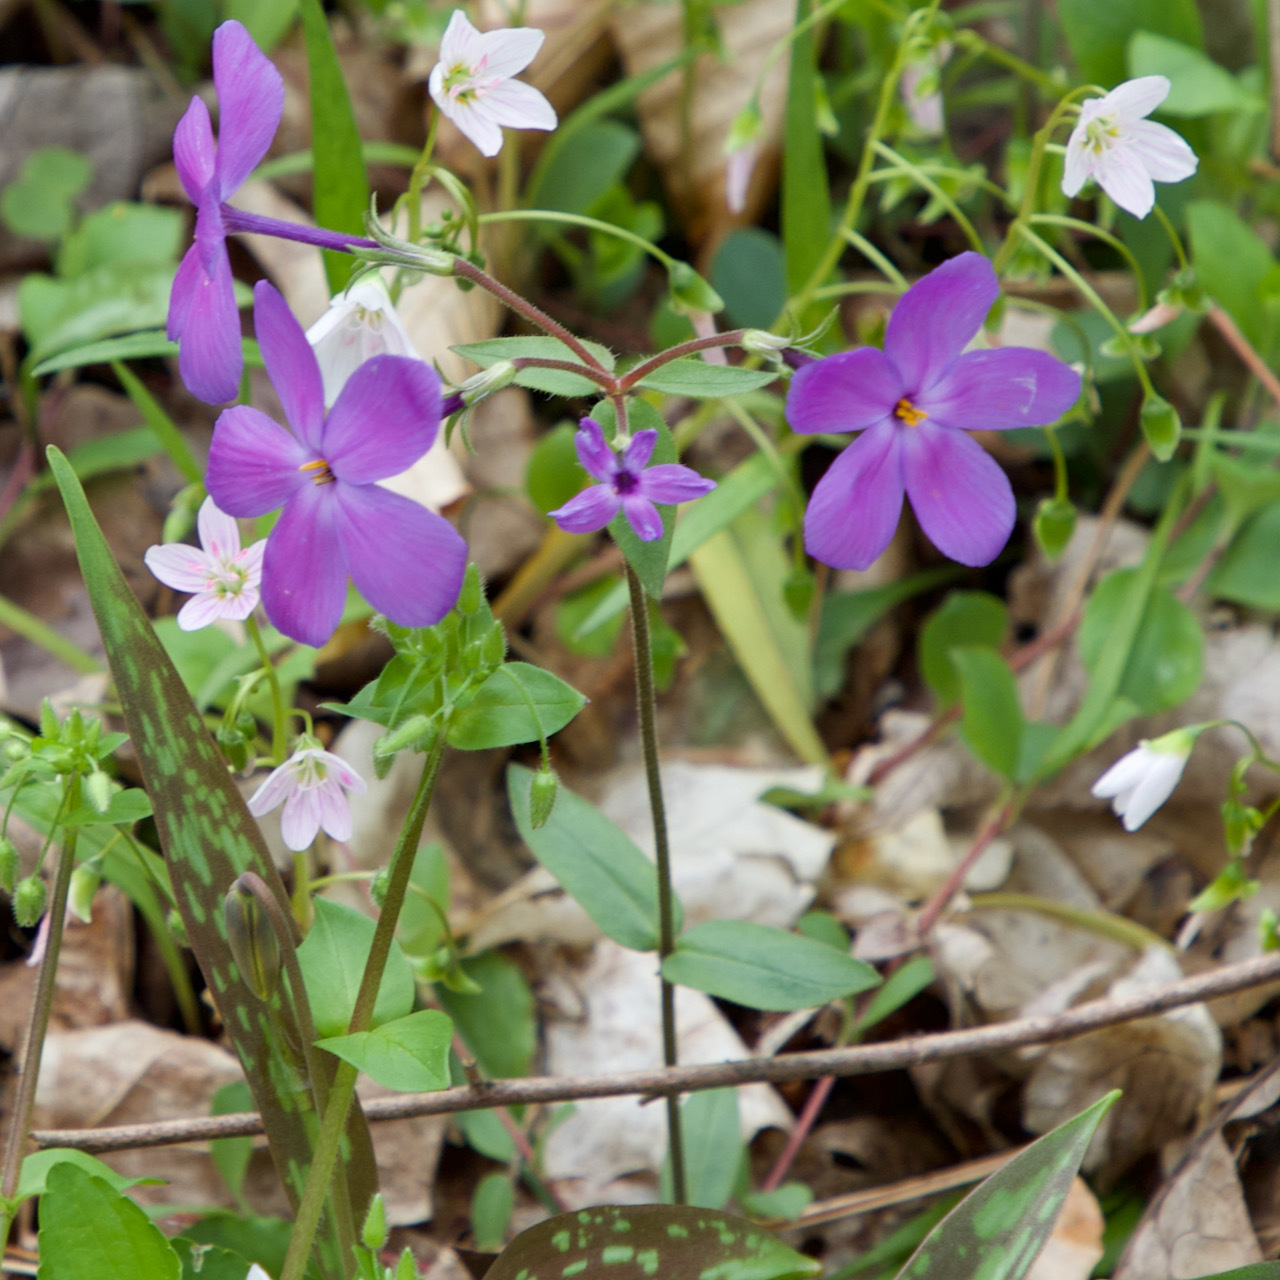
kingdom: Plantae
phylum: Tracheophyta
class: Magnoliopsida
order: Ericales
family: Polemoniaceae
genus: Phlox
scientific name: Phlox stolonifera
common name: Creeping phlox
